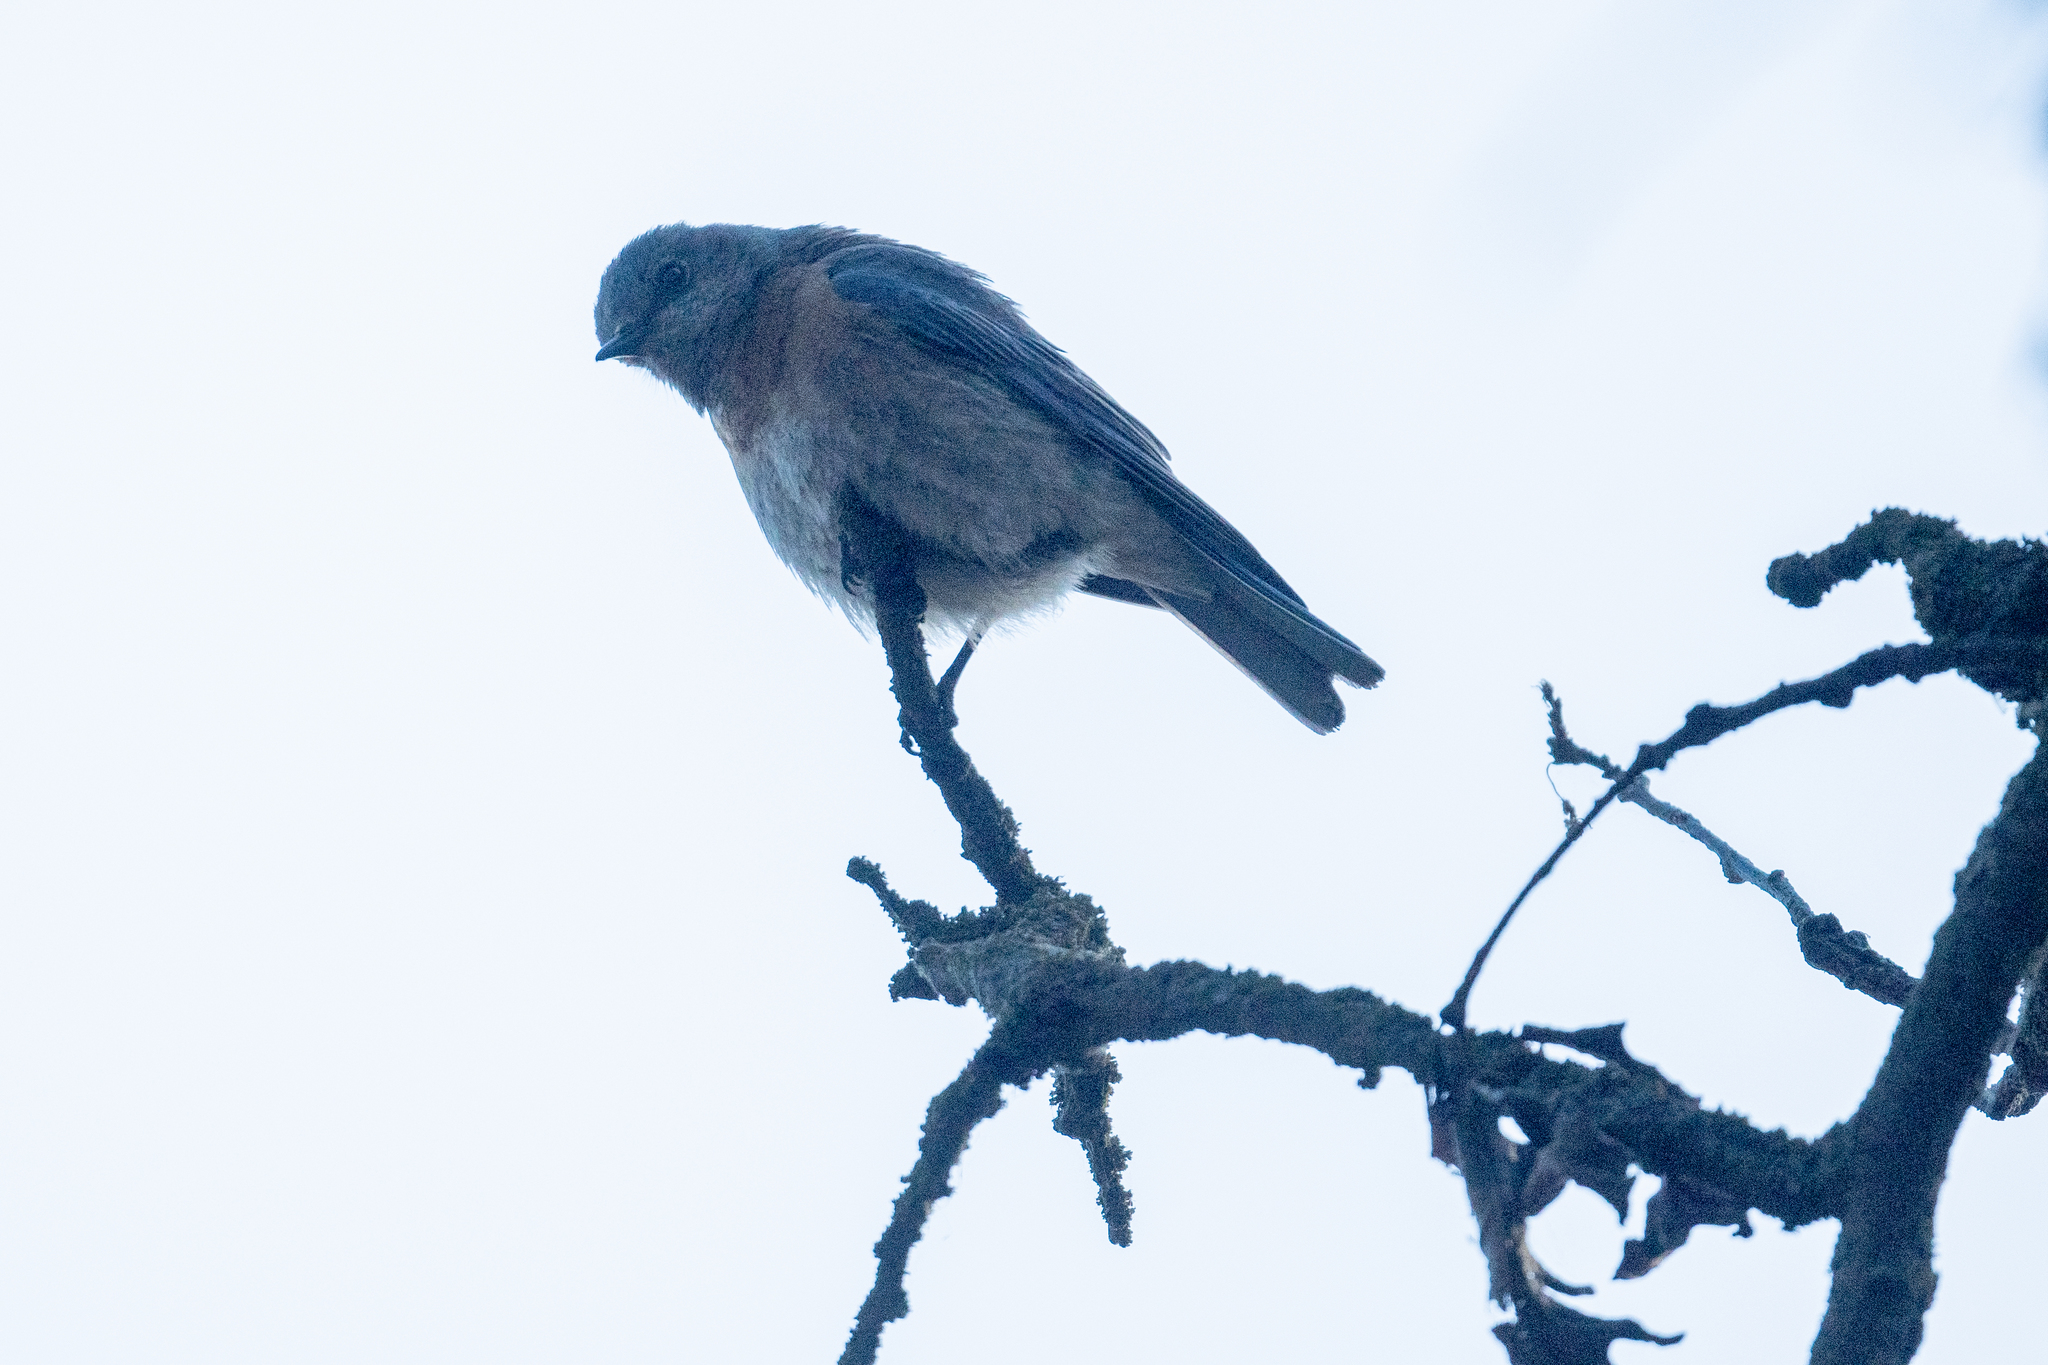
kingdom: Animalia
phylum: Chordata
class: Aves
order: Passeriformes
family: Turdidae
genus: Sialia
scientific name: Sialia mexicana
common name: Western bluebird
